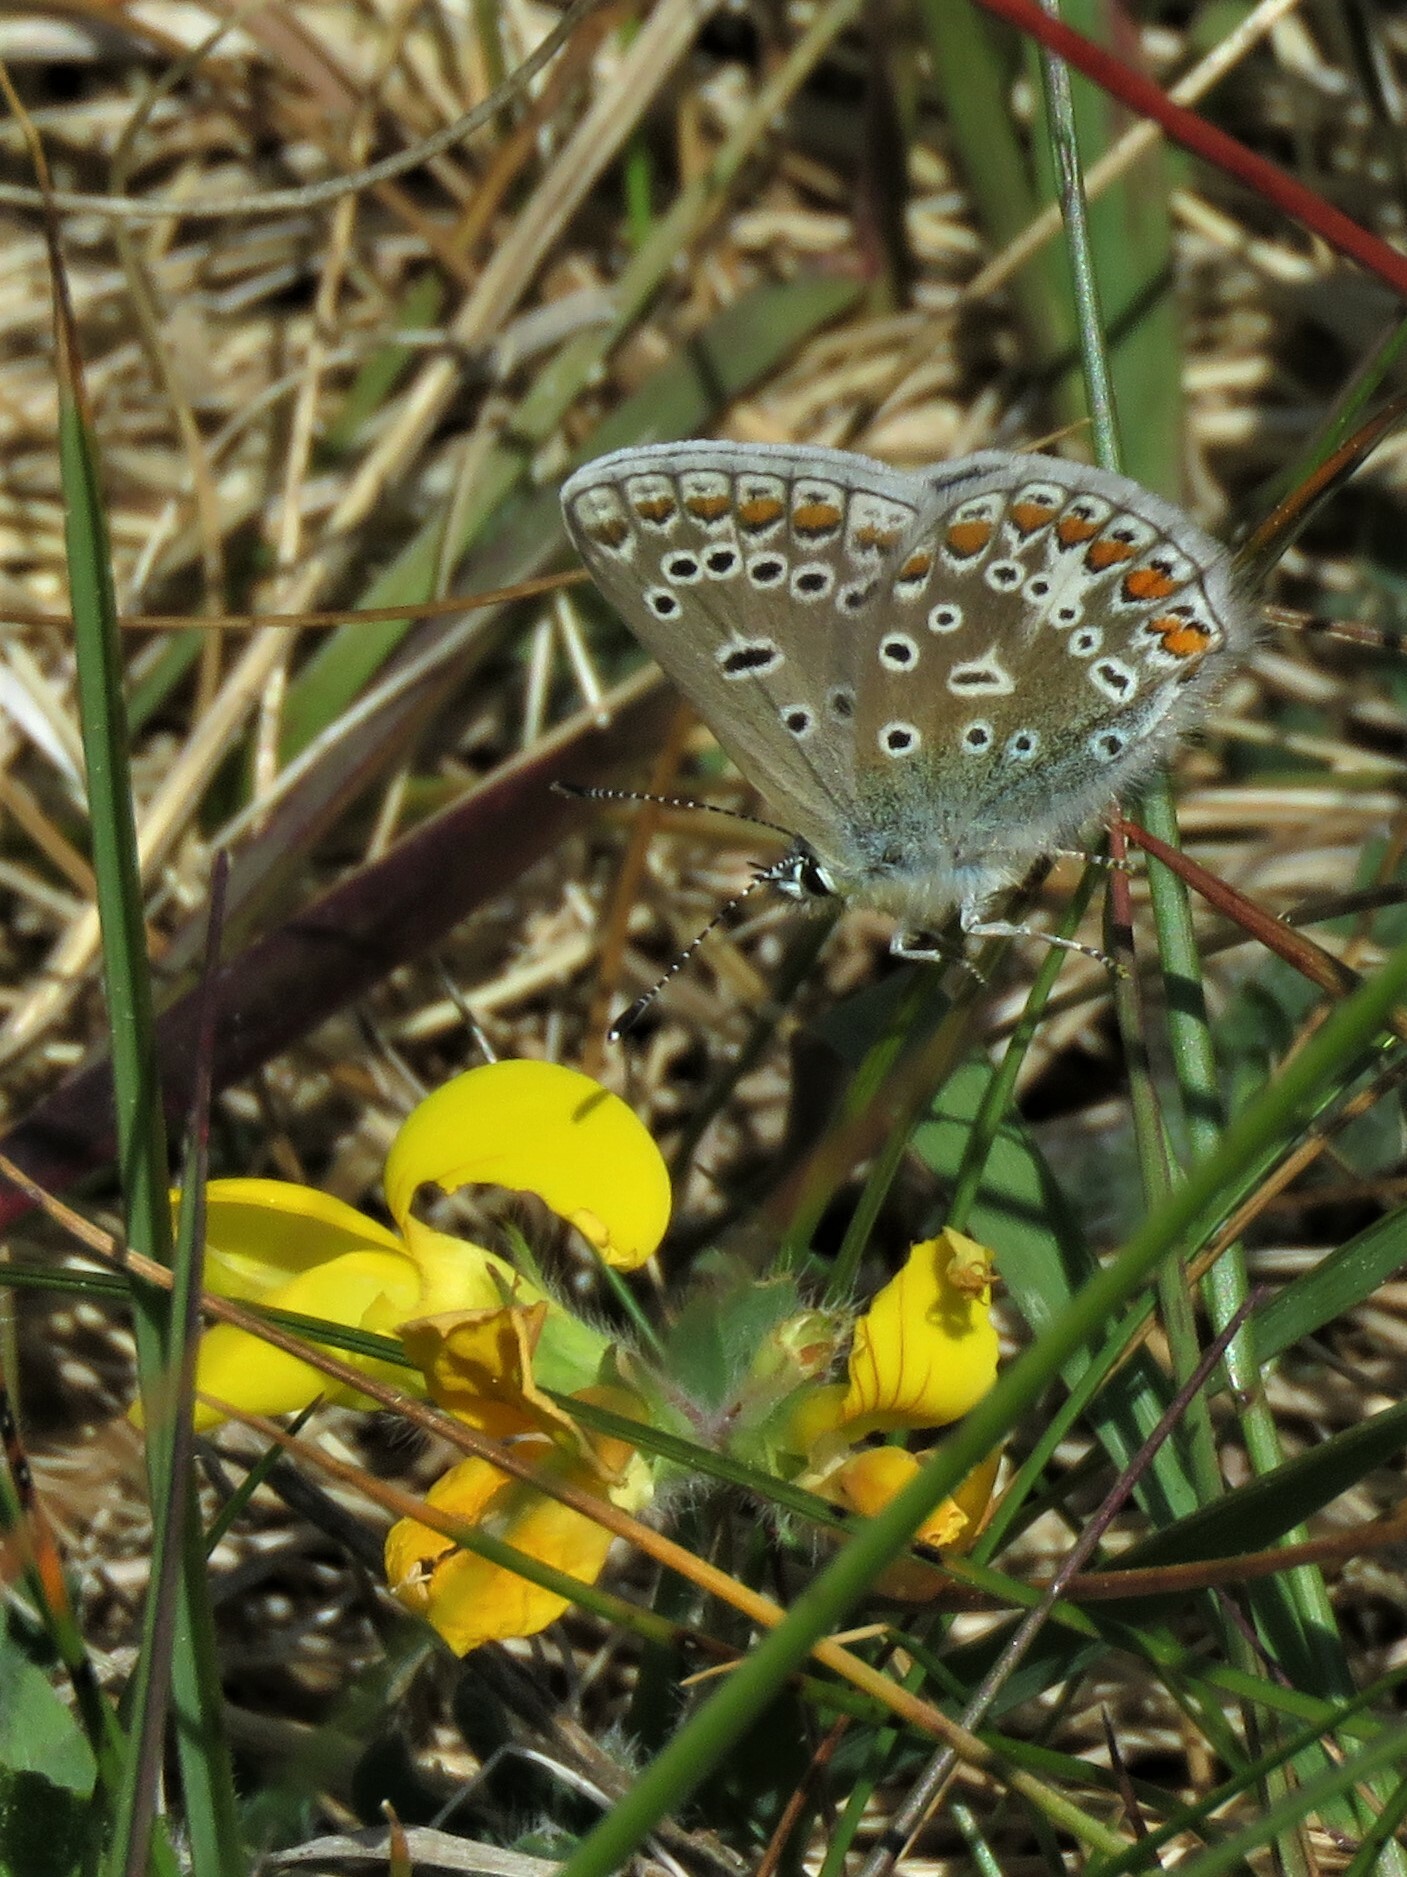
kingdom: Animalia
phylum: Arthropoda
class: Insecta
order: Lepidoptera
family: Lycaenidae
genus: Polyommatus
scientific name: Polyommatus icarus
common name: Common blue
